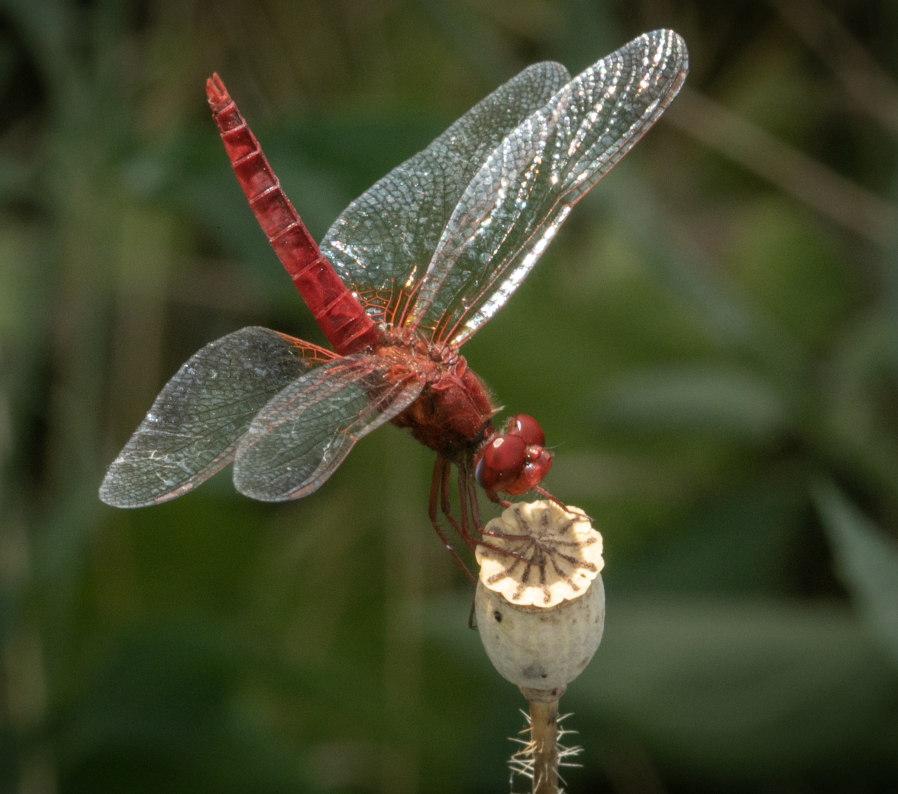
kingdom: Animalia
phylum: Arthropoda
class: Insecta
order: Odonata
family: Libellulidae
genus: Crocothemis
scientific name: Crocothemis erythraea
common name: Scarlet dragonfly
